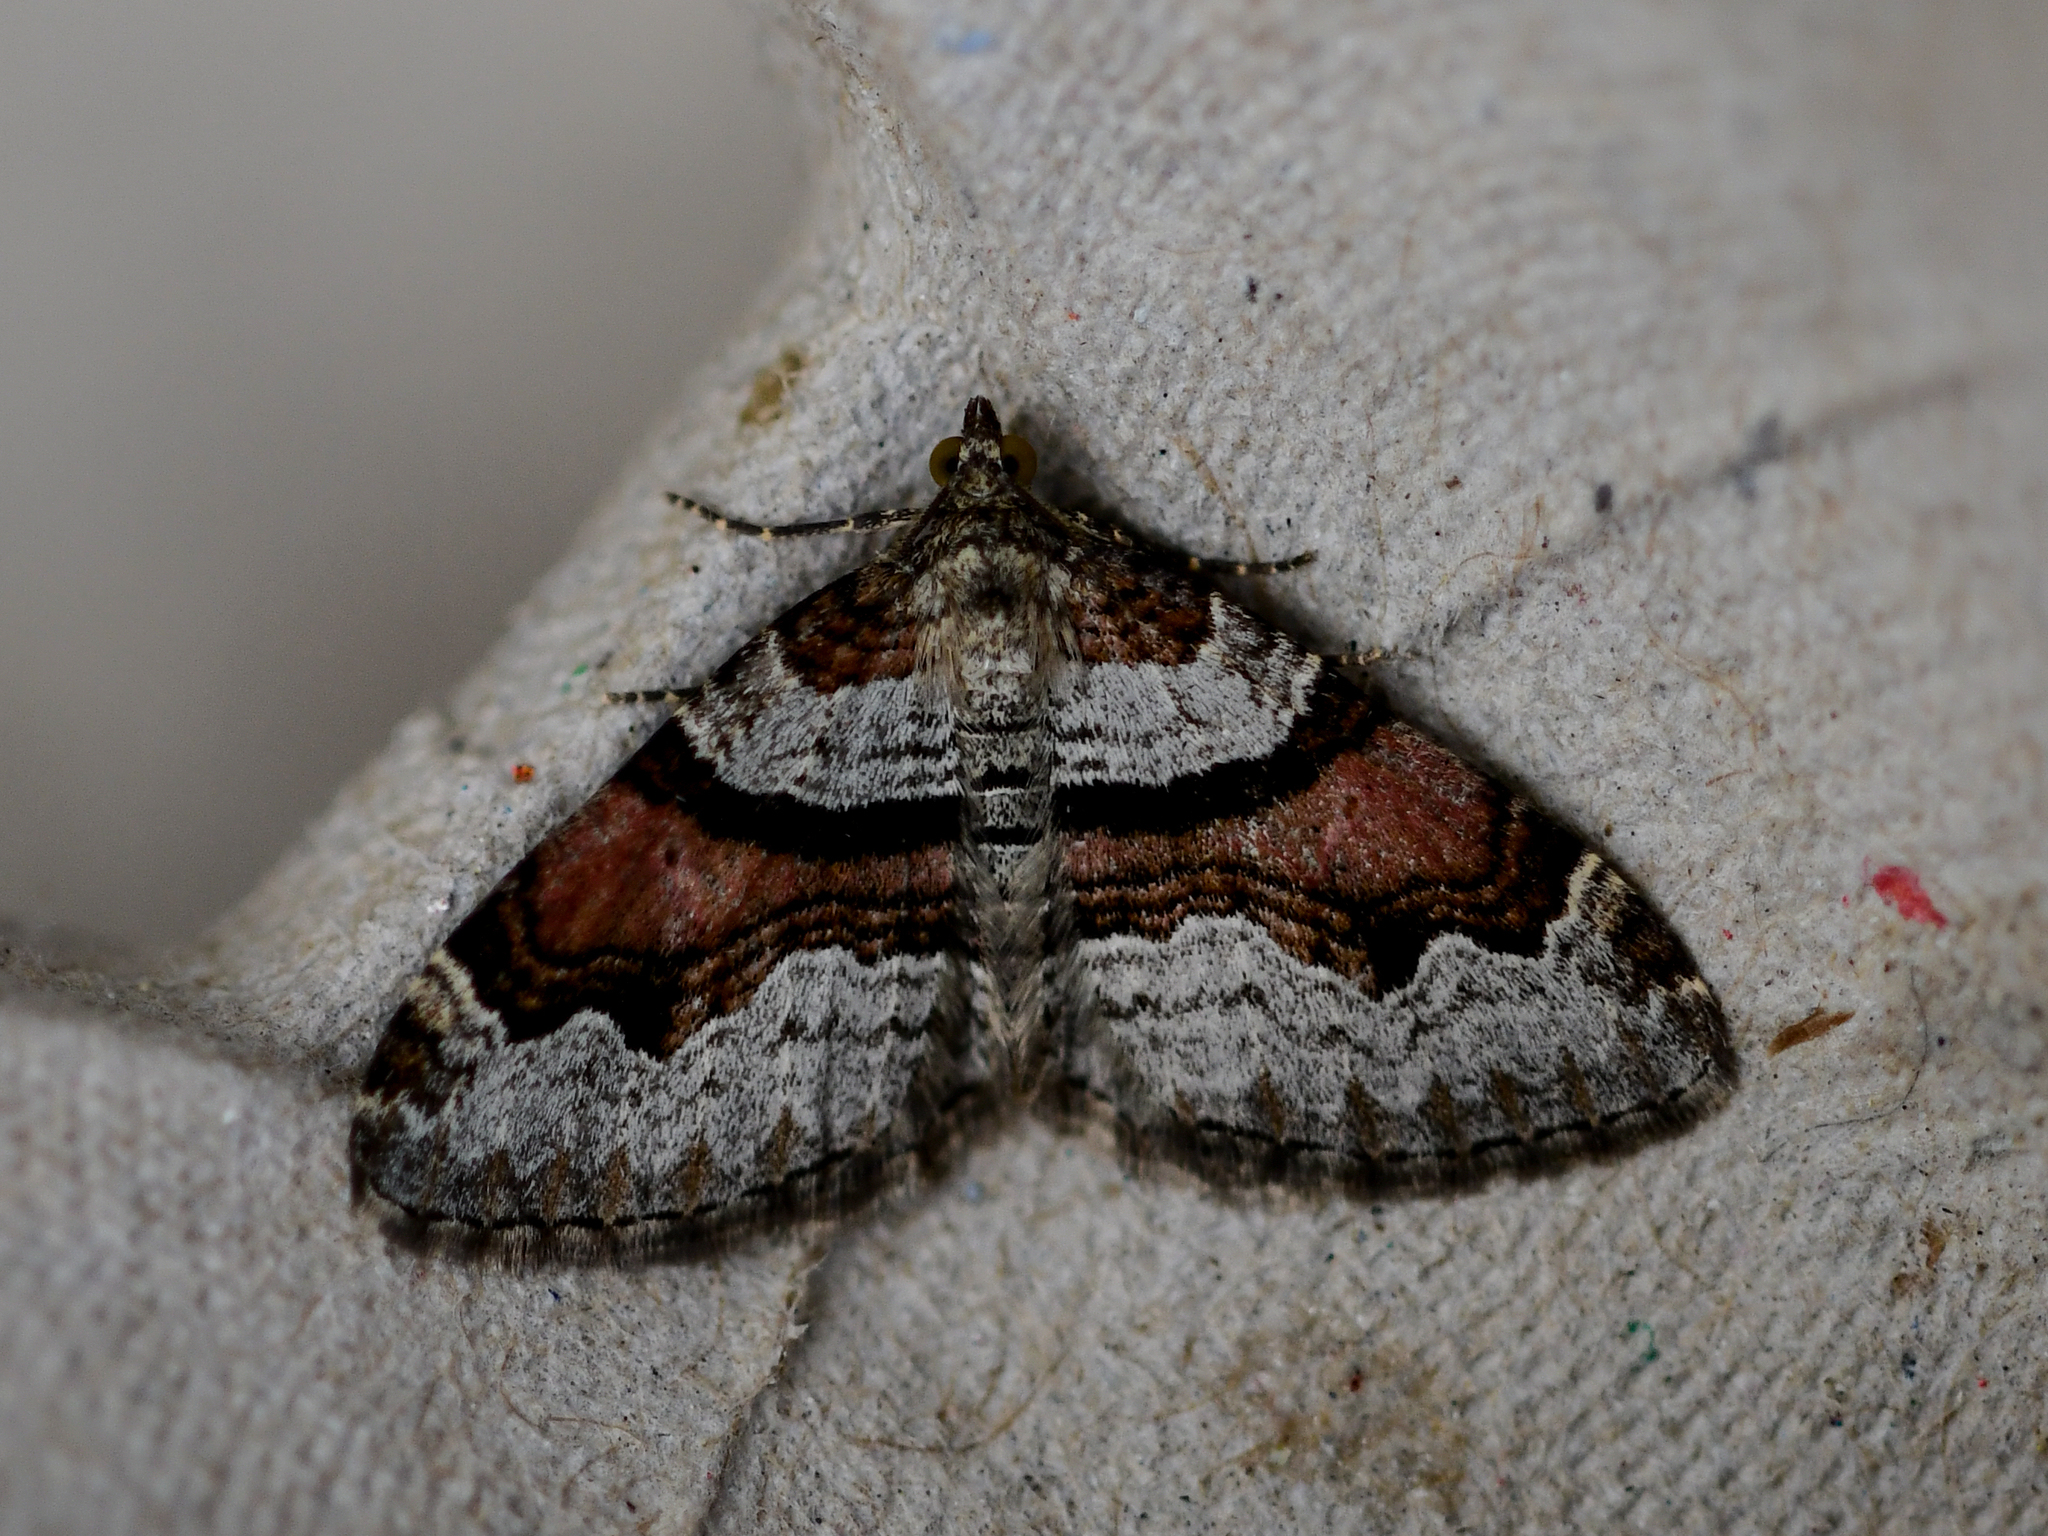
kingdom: Animalia
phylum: Arthropoda
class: Insecta
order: Lepidoptera
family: Geometridae
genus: Xanthorhoe
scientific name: Xanthorhoe designata
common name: Flame carpet
